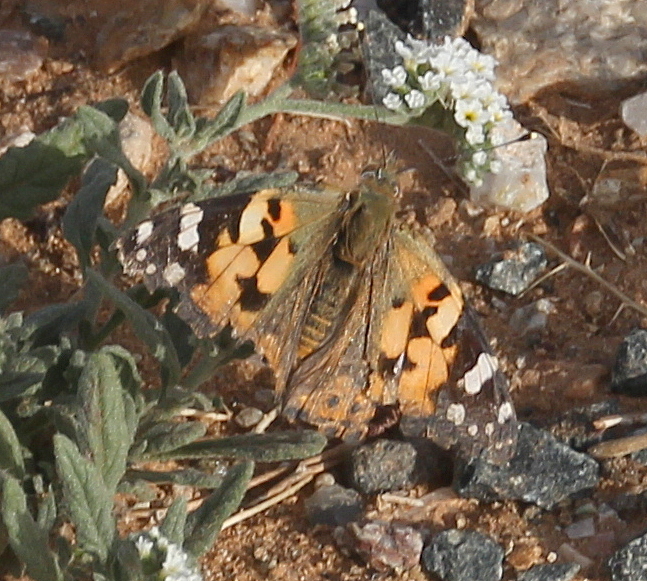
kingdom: Animalia
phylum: Arthropoda
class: Insecta
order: Lepidoptera
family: Nymphalidae
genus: Vanessa
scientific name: Vanessa cardui
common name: Painted lady
